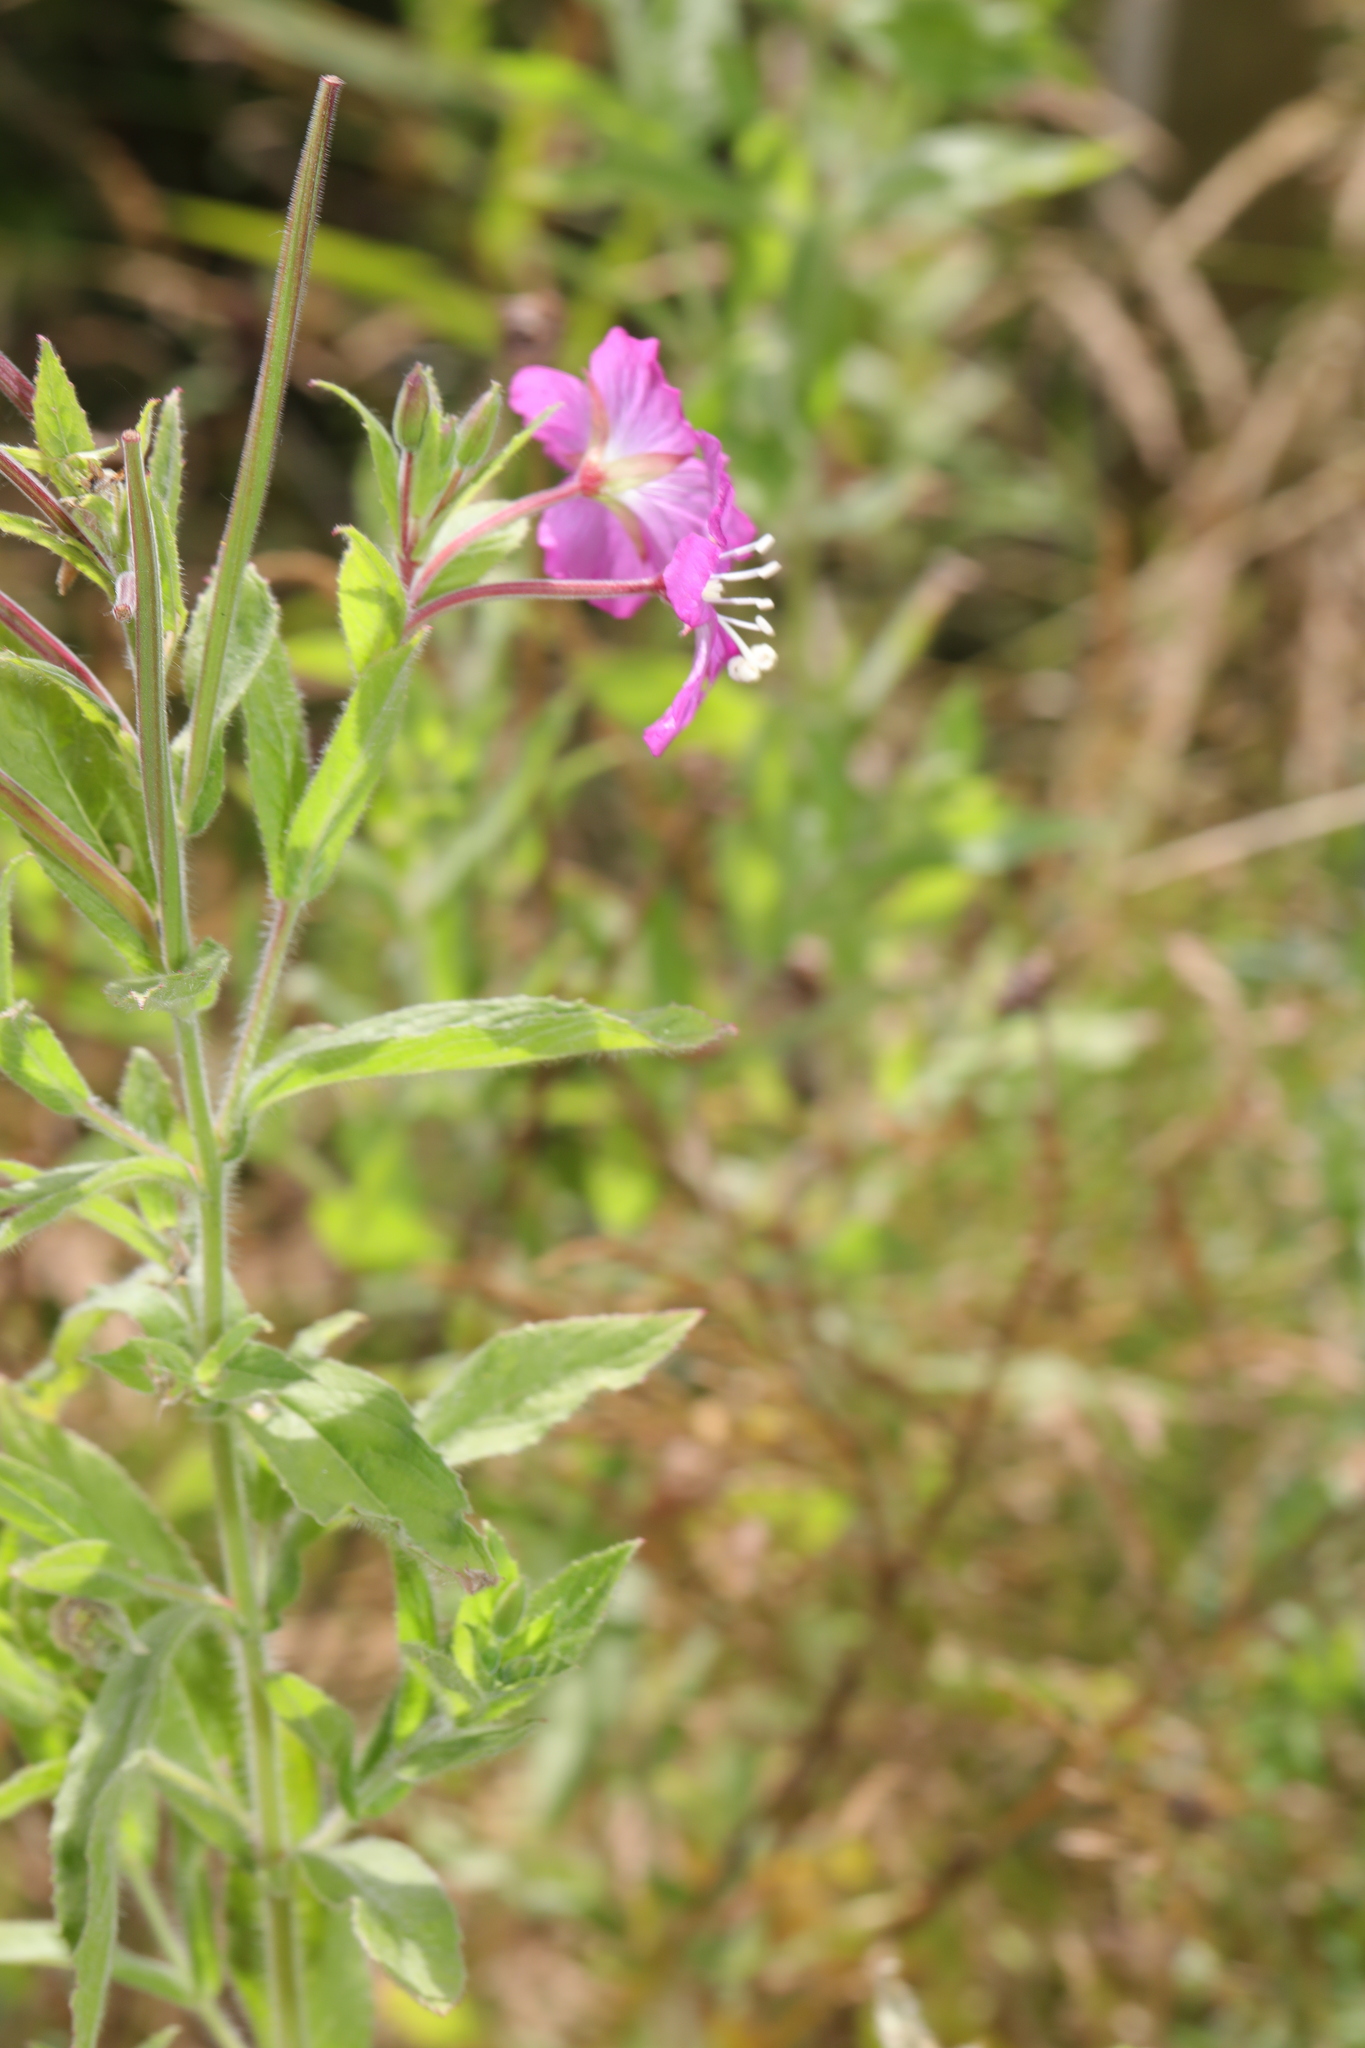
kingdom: Plantae
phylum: Tracheophyta
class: Magnoliopsida
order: Myrtales
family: Onagraceae
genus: Epilobium
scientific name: Epilobium hirsutum
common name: Great willowherb
